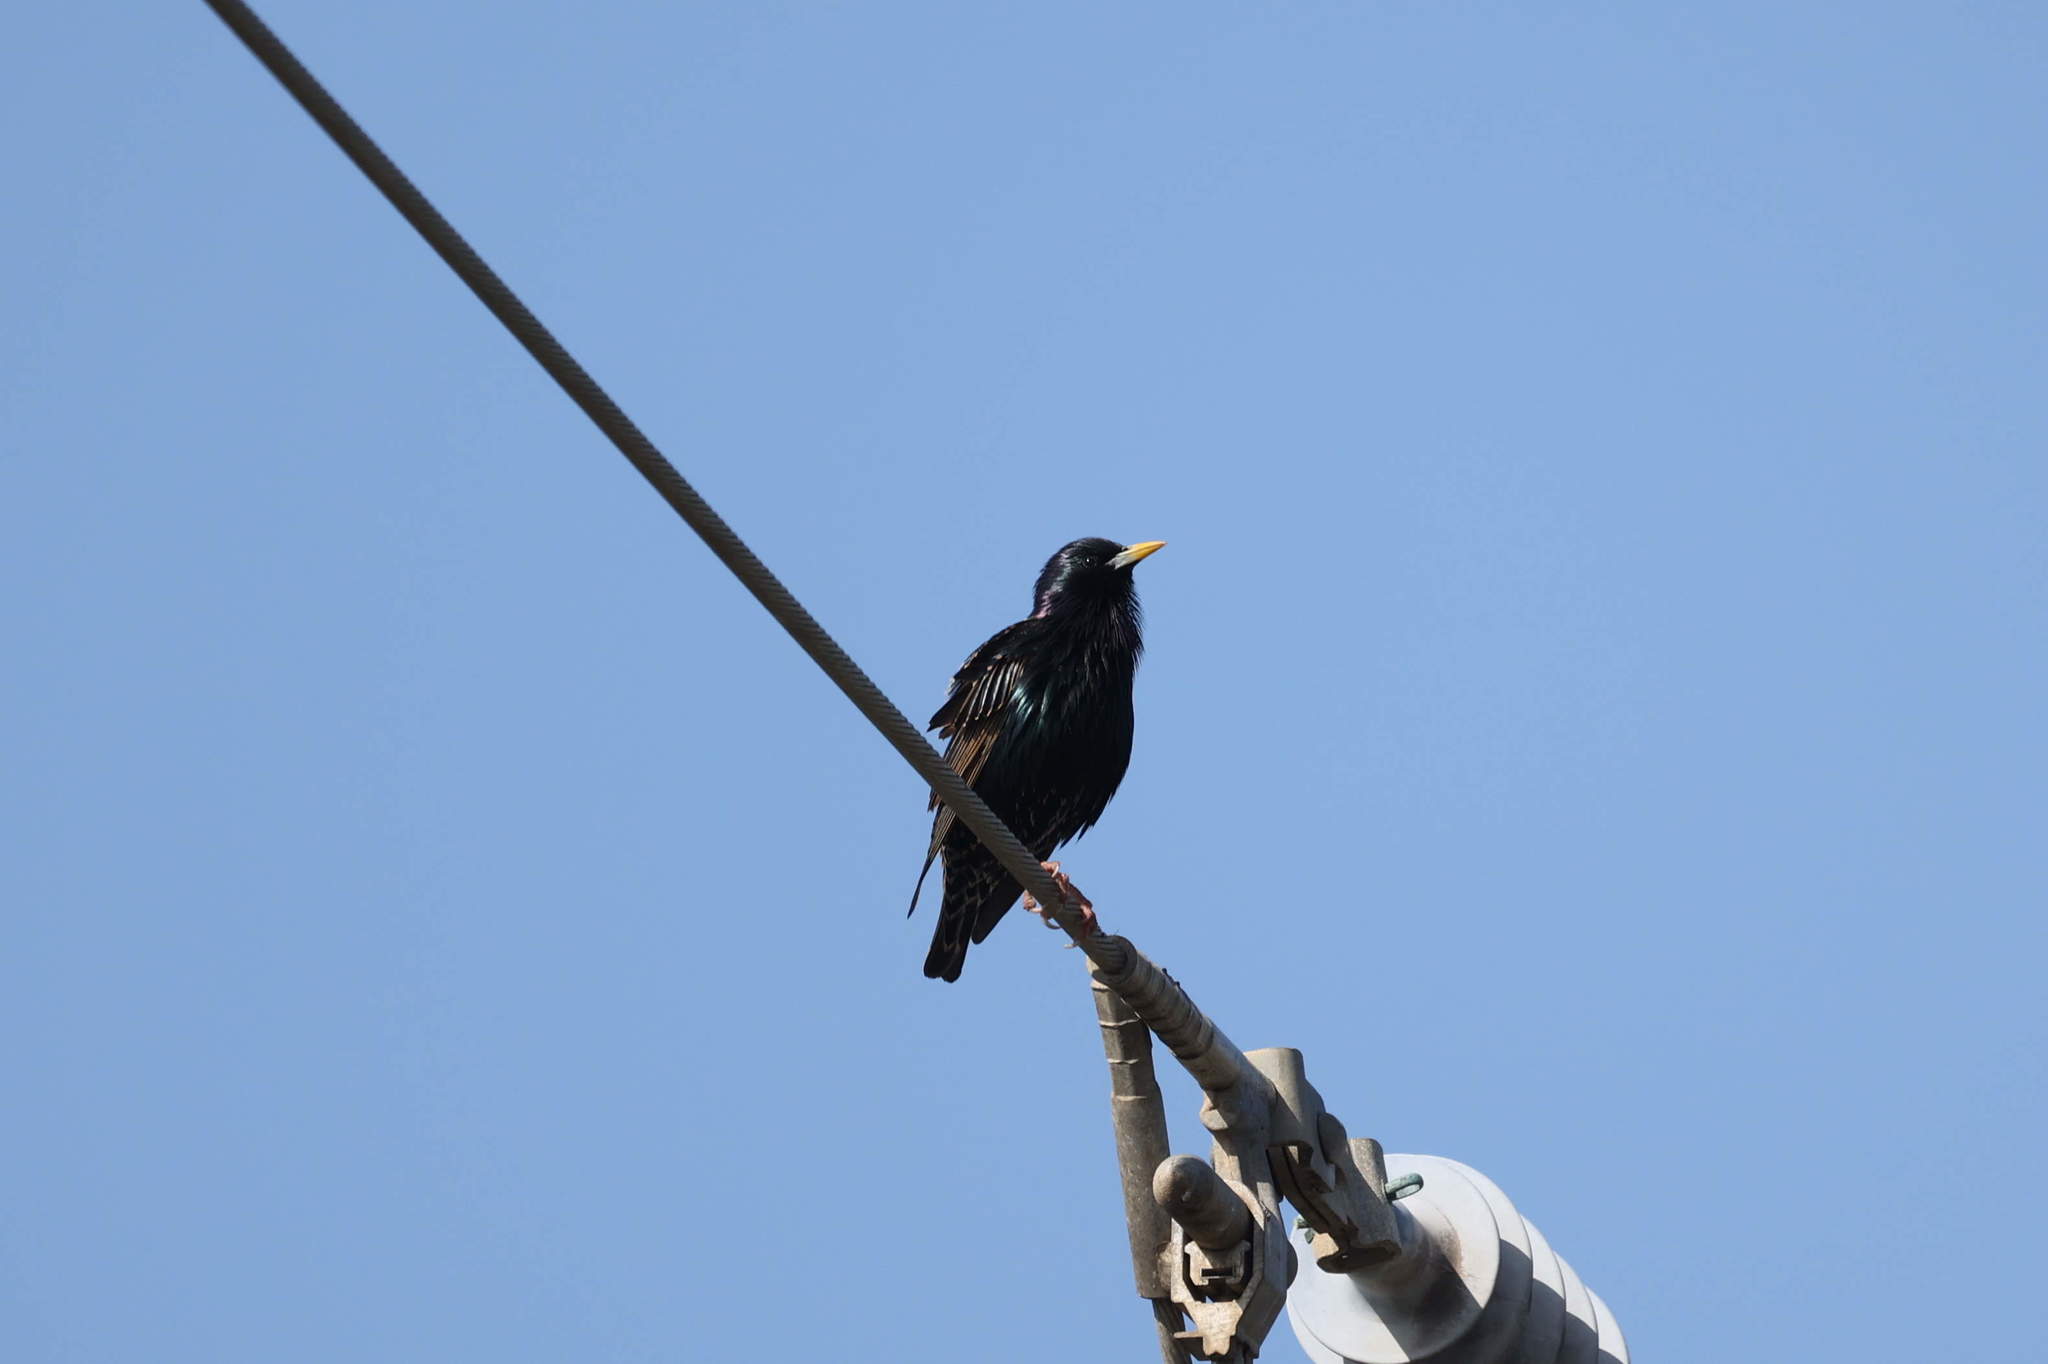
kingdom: Animalia
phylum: Chordata
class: Aves
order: Passeriformes
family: Sturnidae
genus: Sturnus
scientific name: Sturnus vulgaris
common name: Common starling
